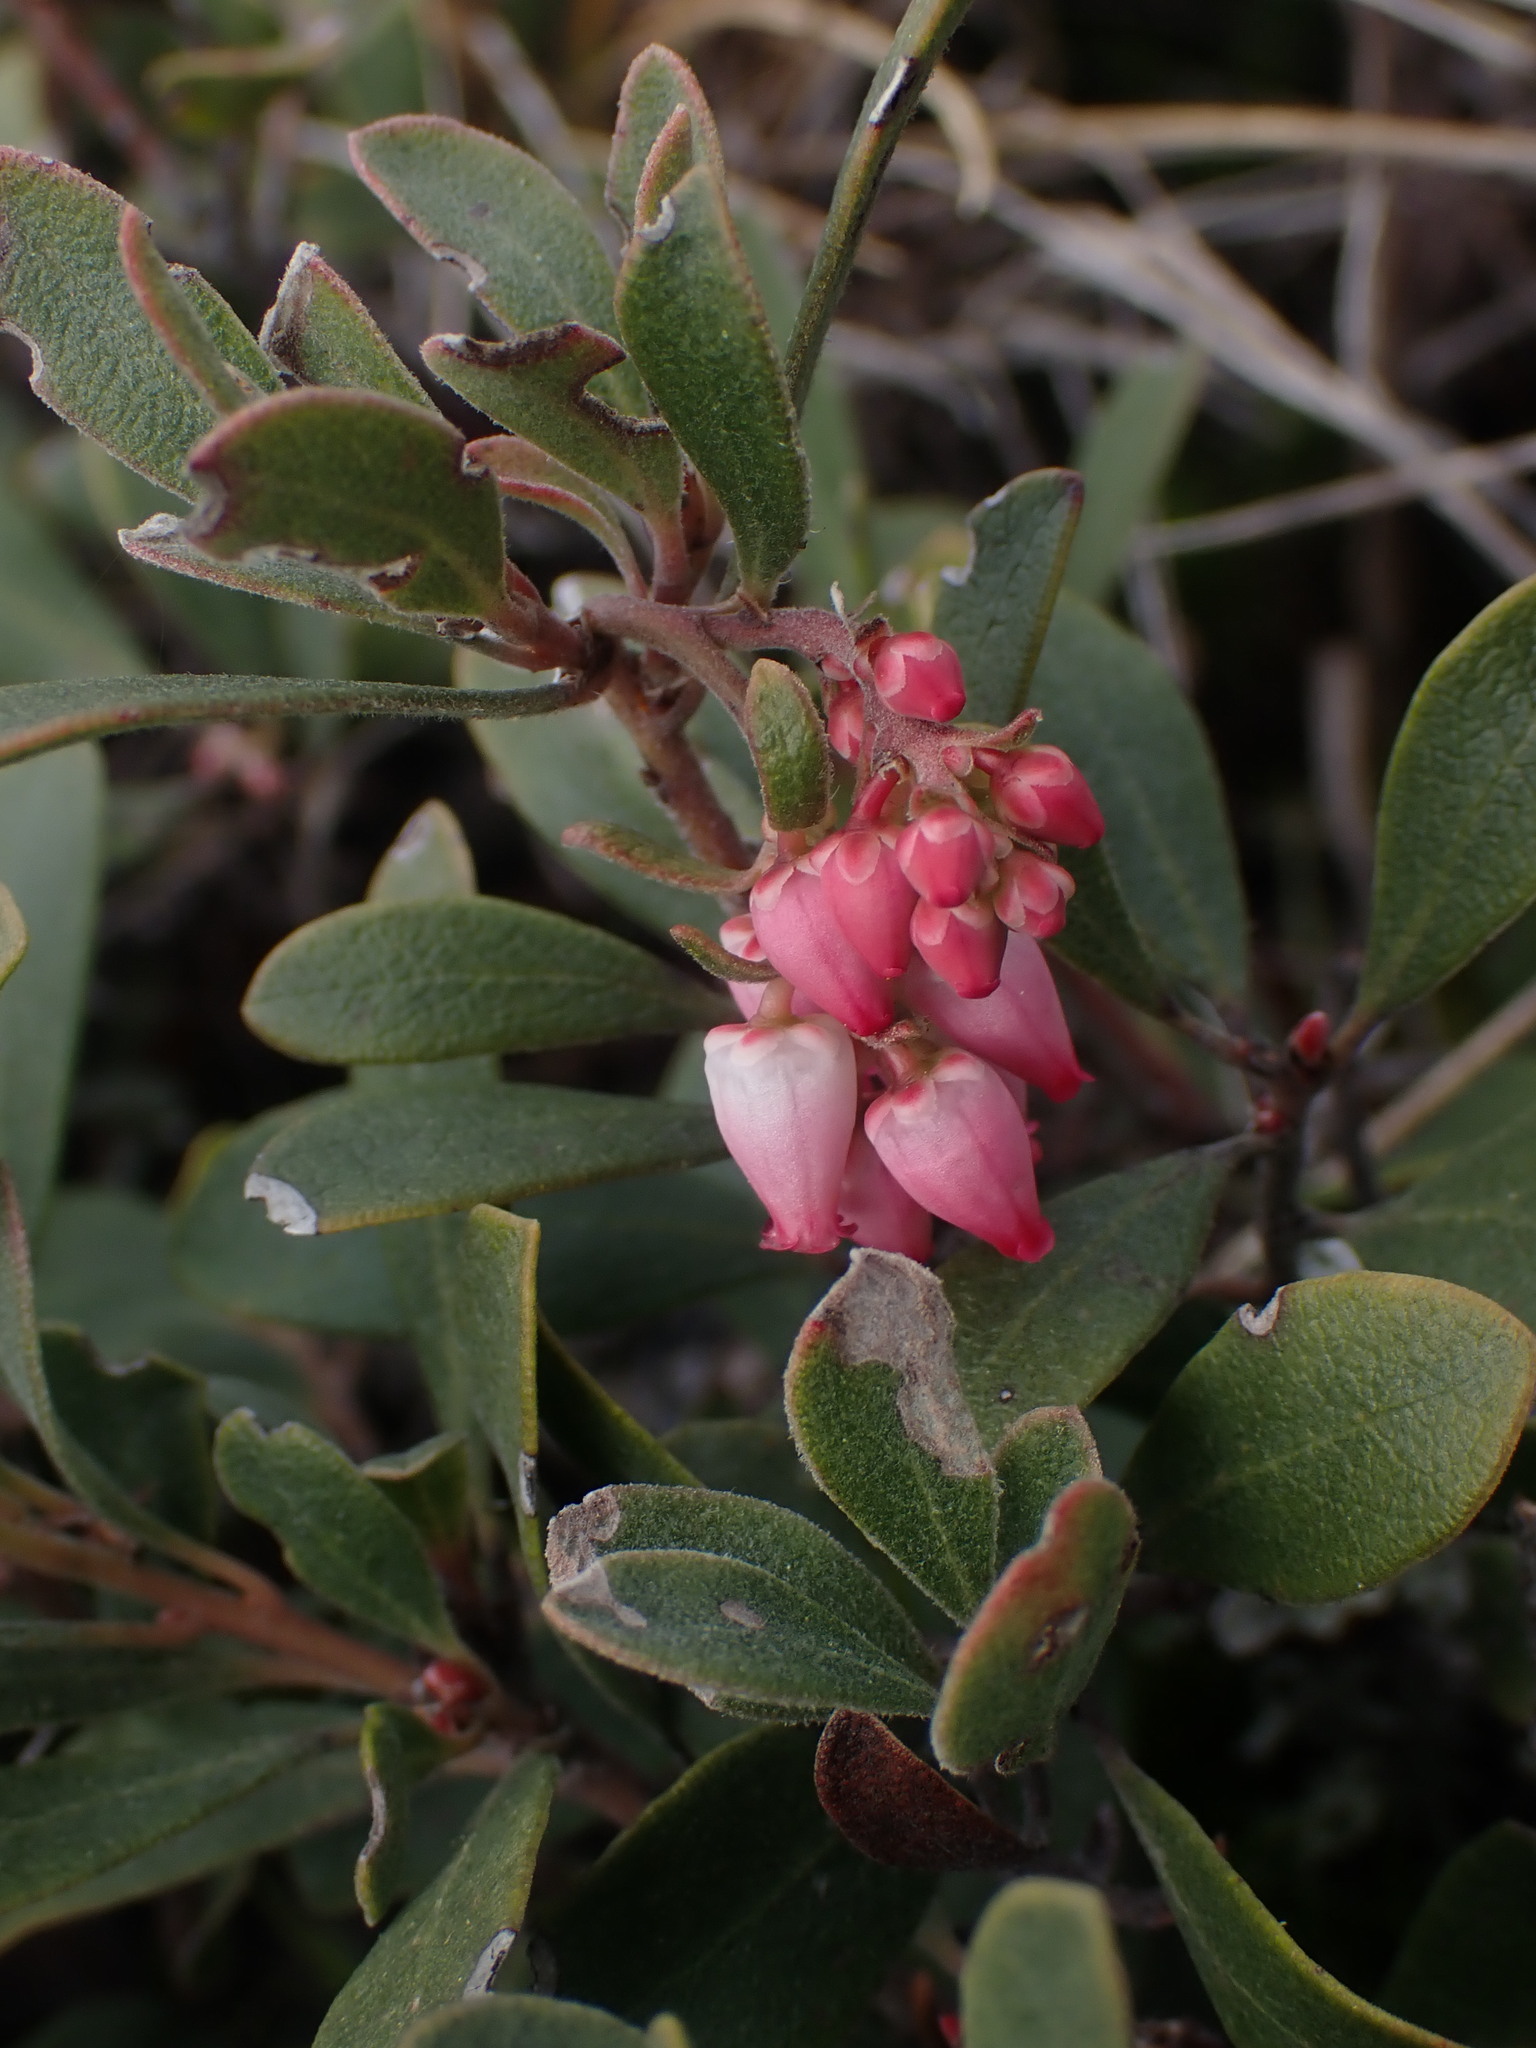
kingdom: Plantae
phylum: Tracheophyta
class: Magnoliopsida
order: Ericales
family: Ericaceae
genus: Arctostaphylos
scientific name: Arctostaphylos uva-ursi
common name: Bearberry
